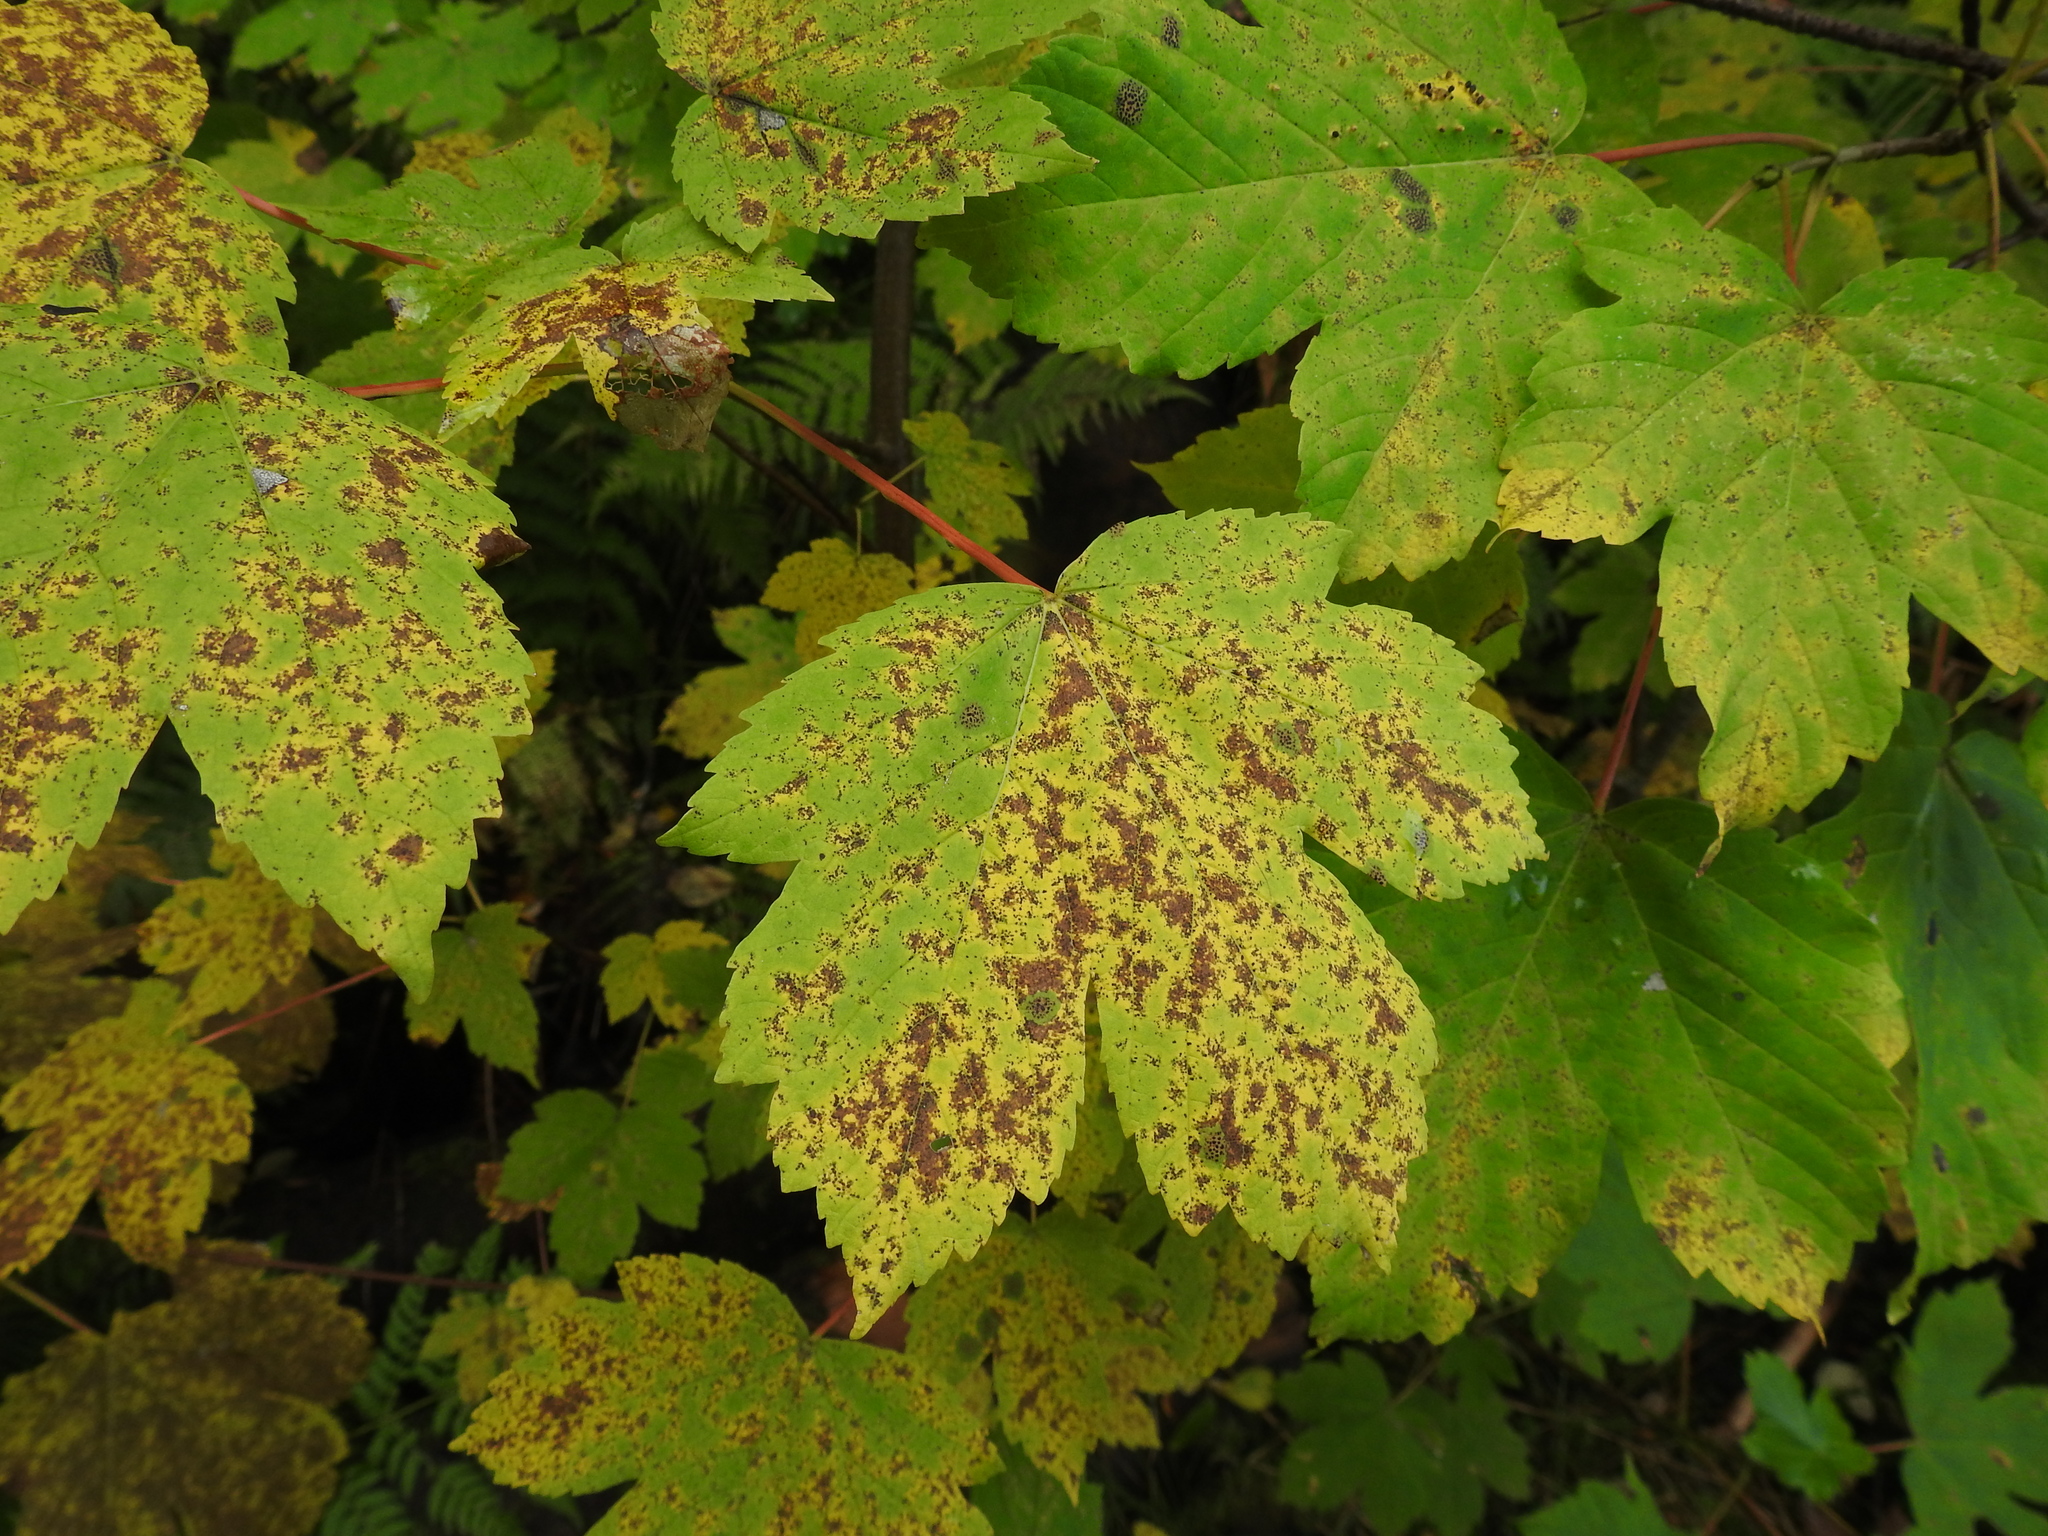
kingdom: Plantae
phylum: Tracheophyta
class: Magnoliopsida
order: Sapindales
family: Sapindaceae
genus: Acer
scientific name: Acer pseudoplatanus
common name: Sycamore
